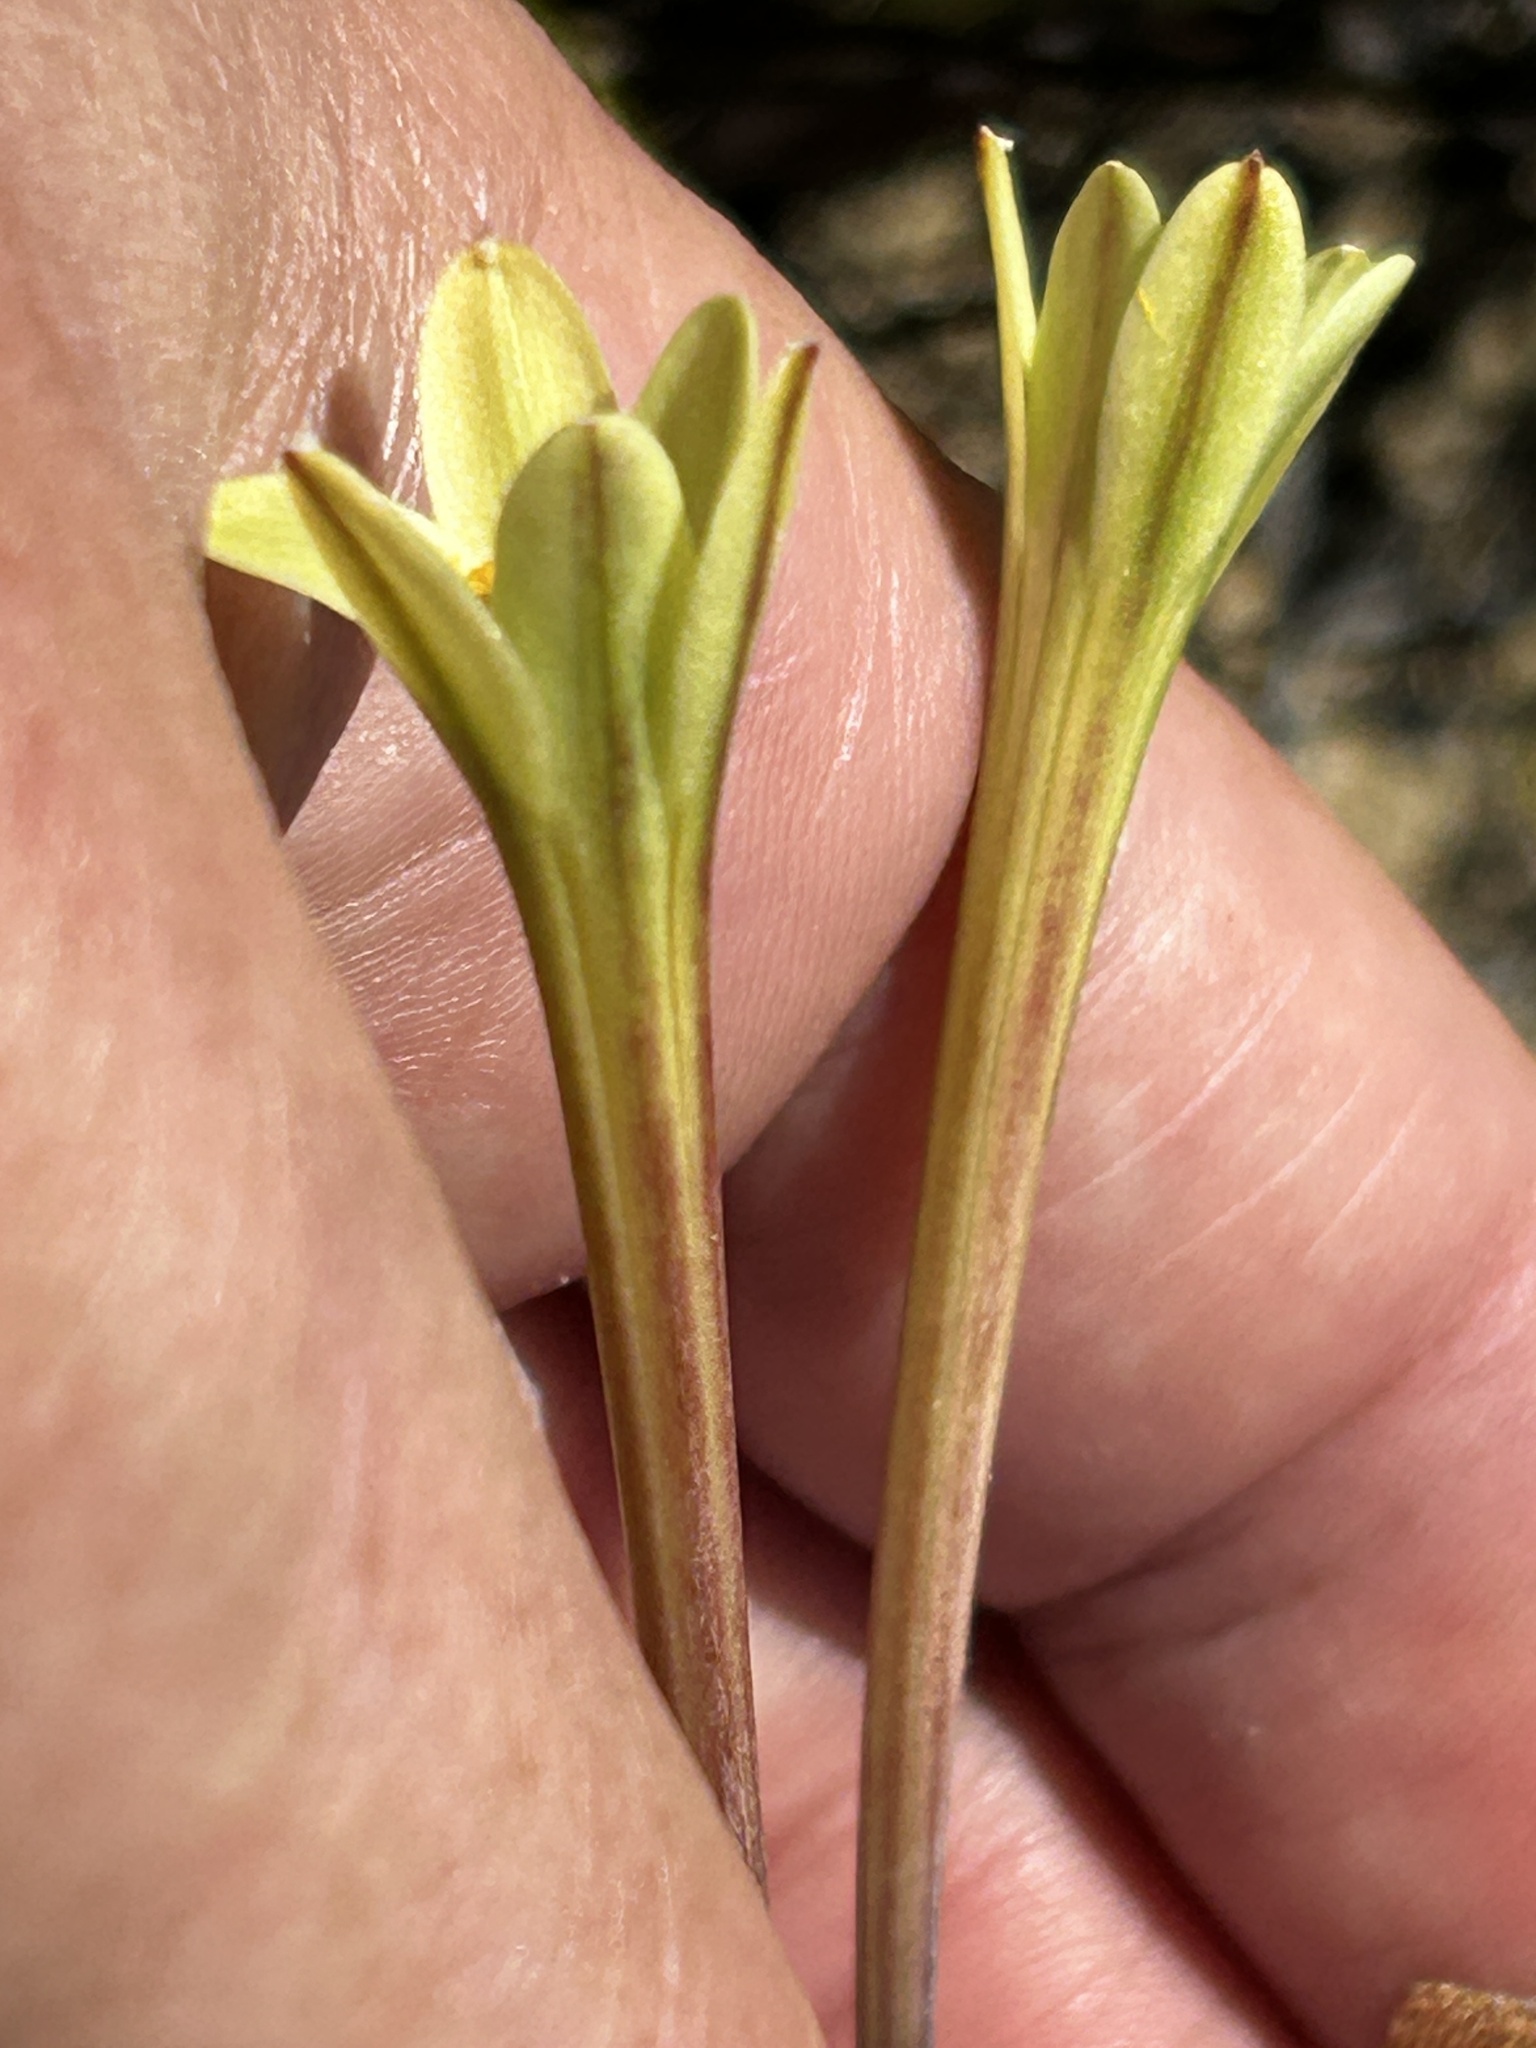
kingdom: Plantae
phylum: Tracheophyta
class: Liliopsida
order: Asparagales
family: Amaryllidaceae
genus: Cyrtanthus
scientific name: Cyrtanthus ochroleucus
